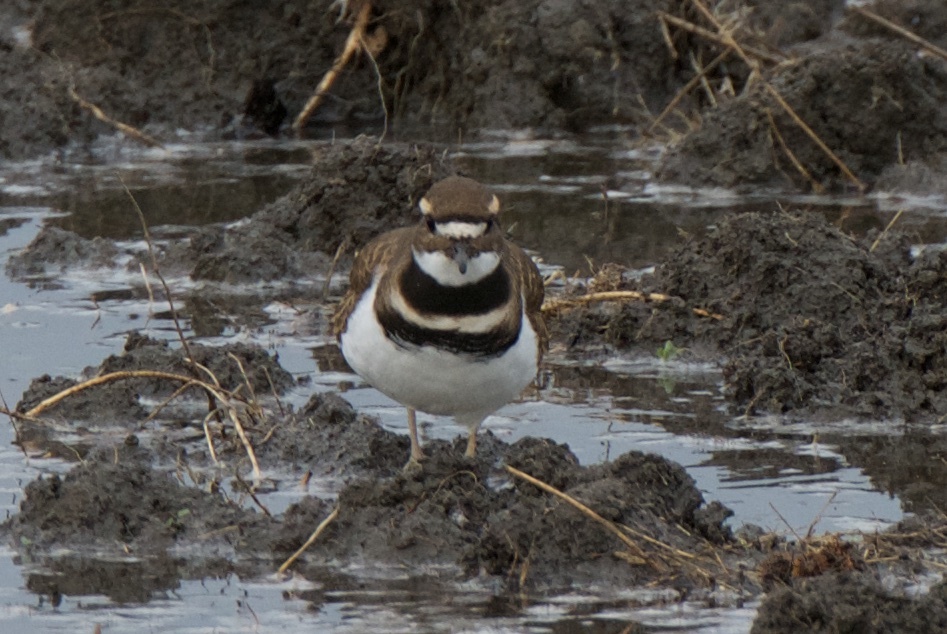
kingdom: Animalia
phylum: Chordata
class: Aves
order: Charadriiformes
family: Charadriidae
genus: Charadrius
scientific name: Charadrius vociferus
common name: Killdeer
